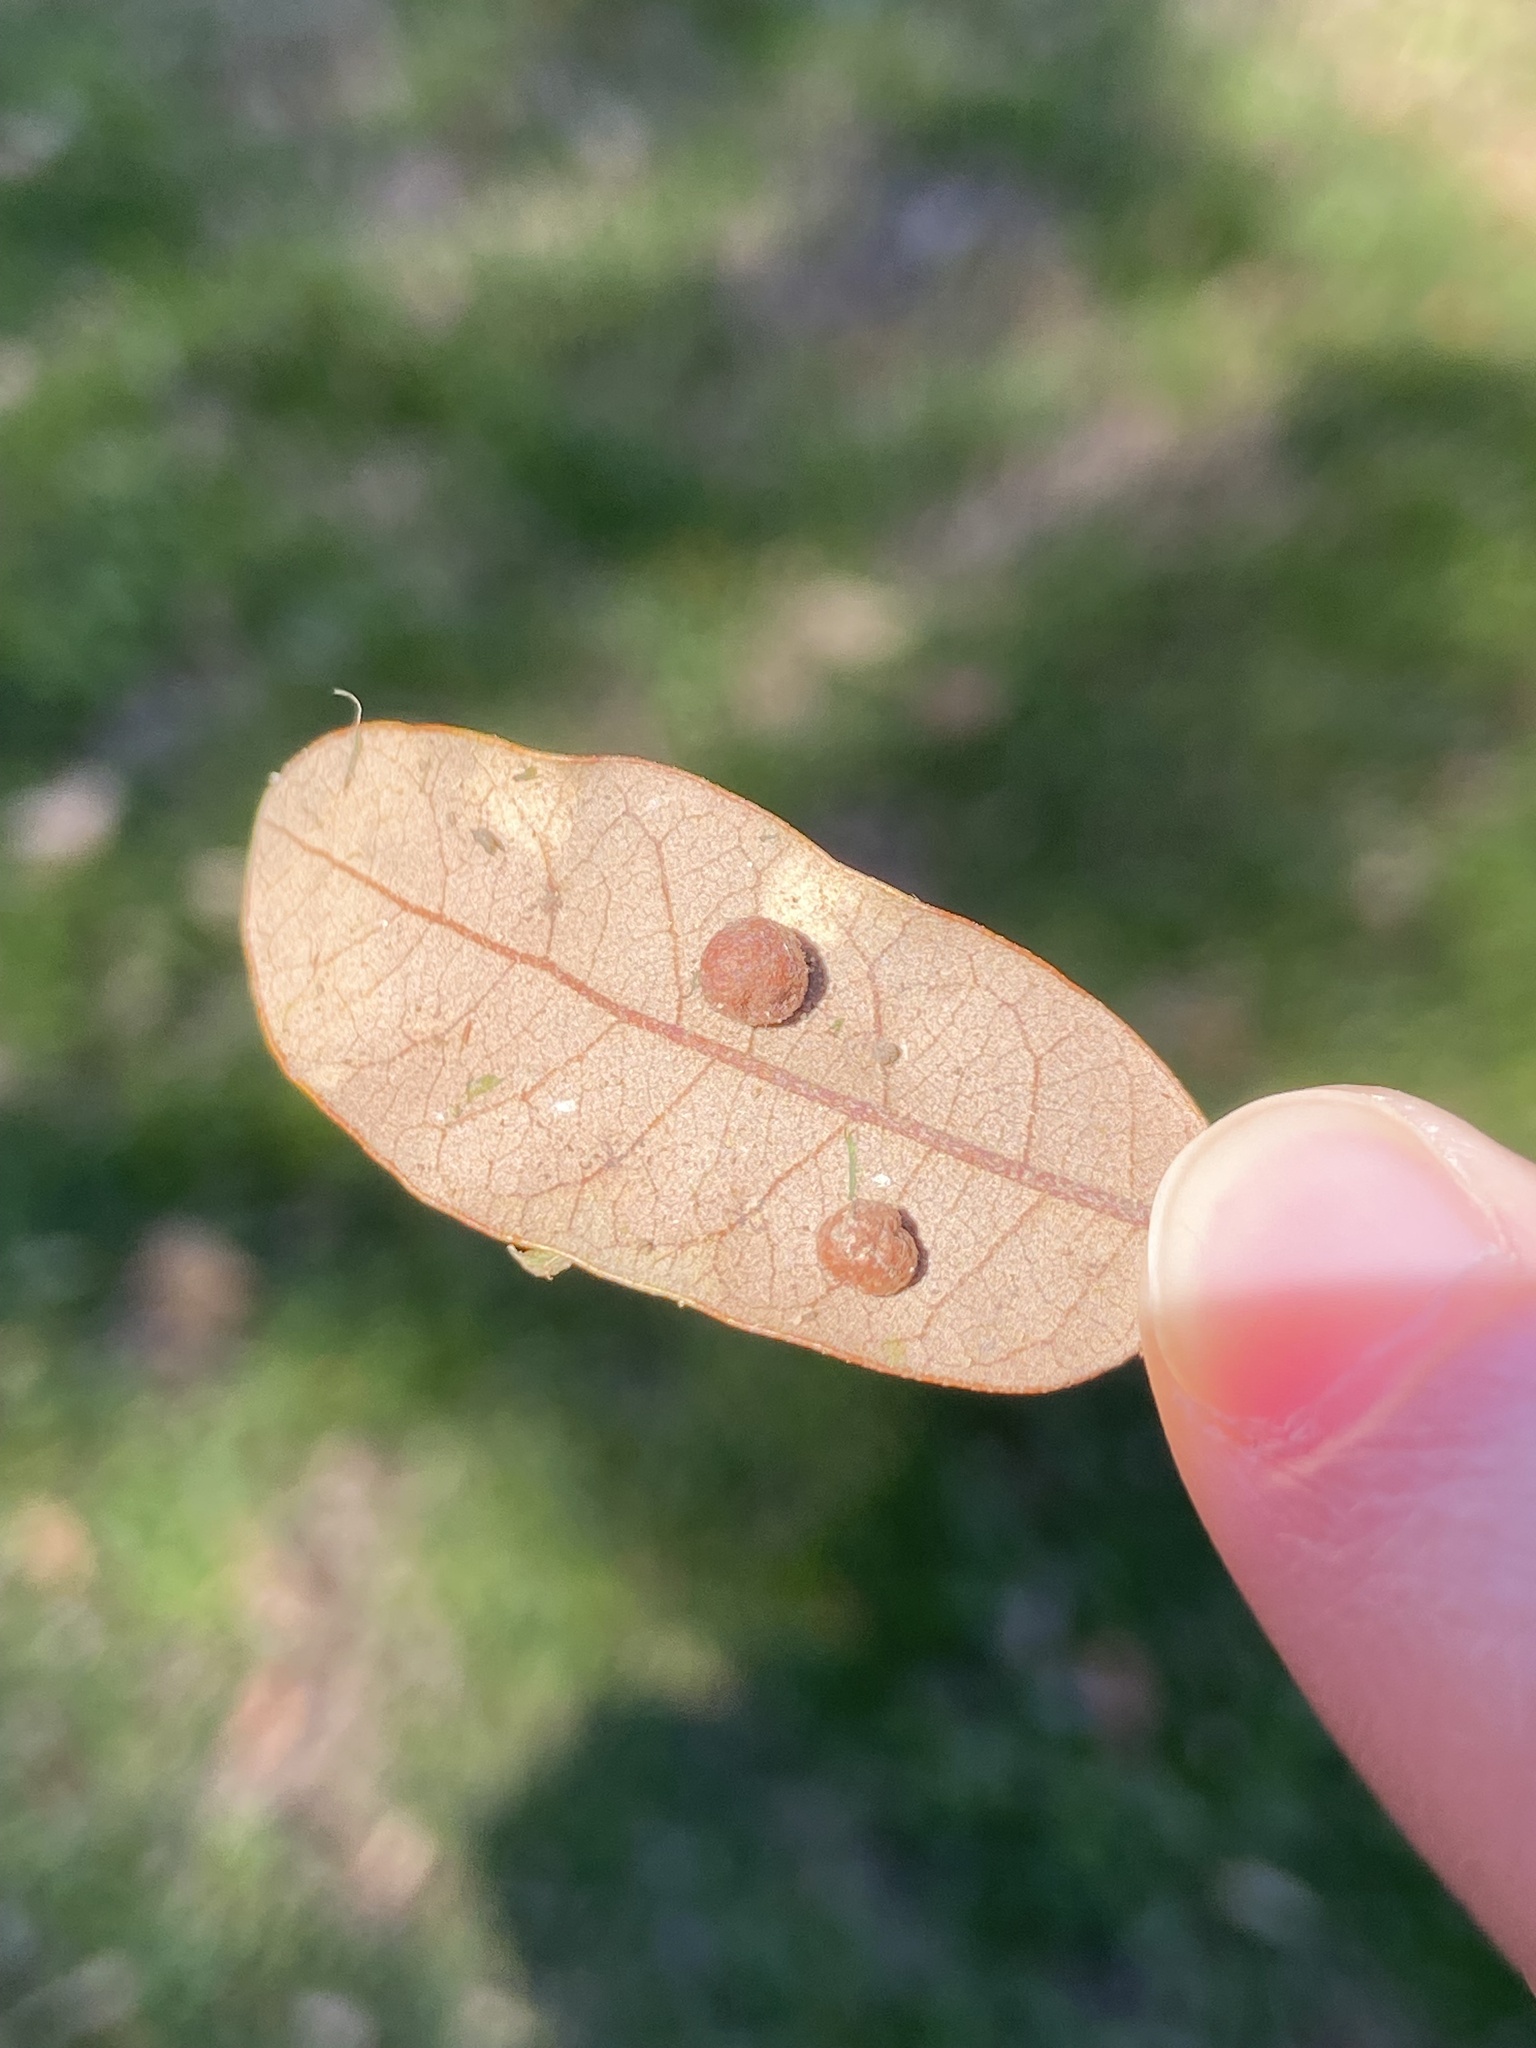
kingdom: Animalia
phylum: Arthropoda
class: Insecta
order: Hymenoptera
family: Cynipidae
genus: Belonocnema
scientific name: Belonocnema kinseyi
